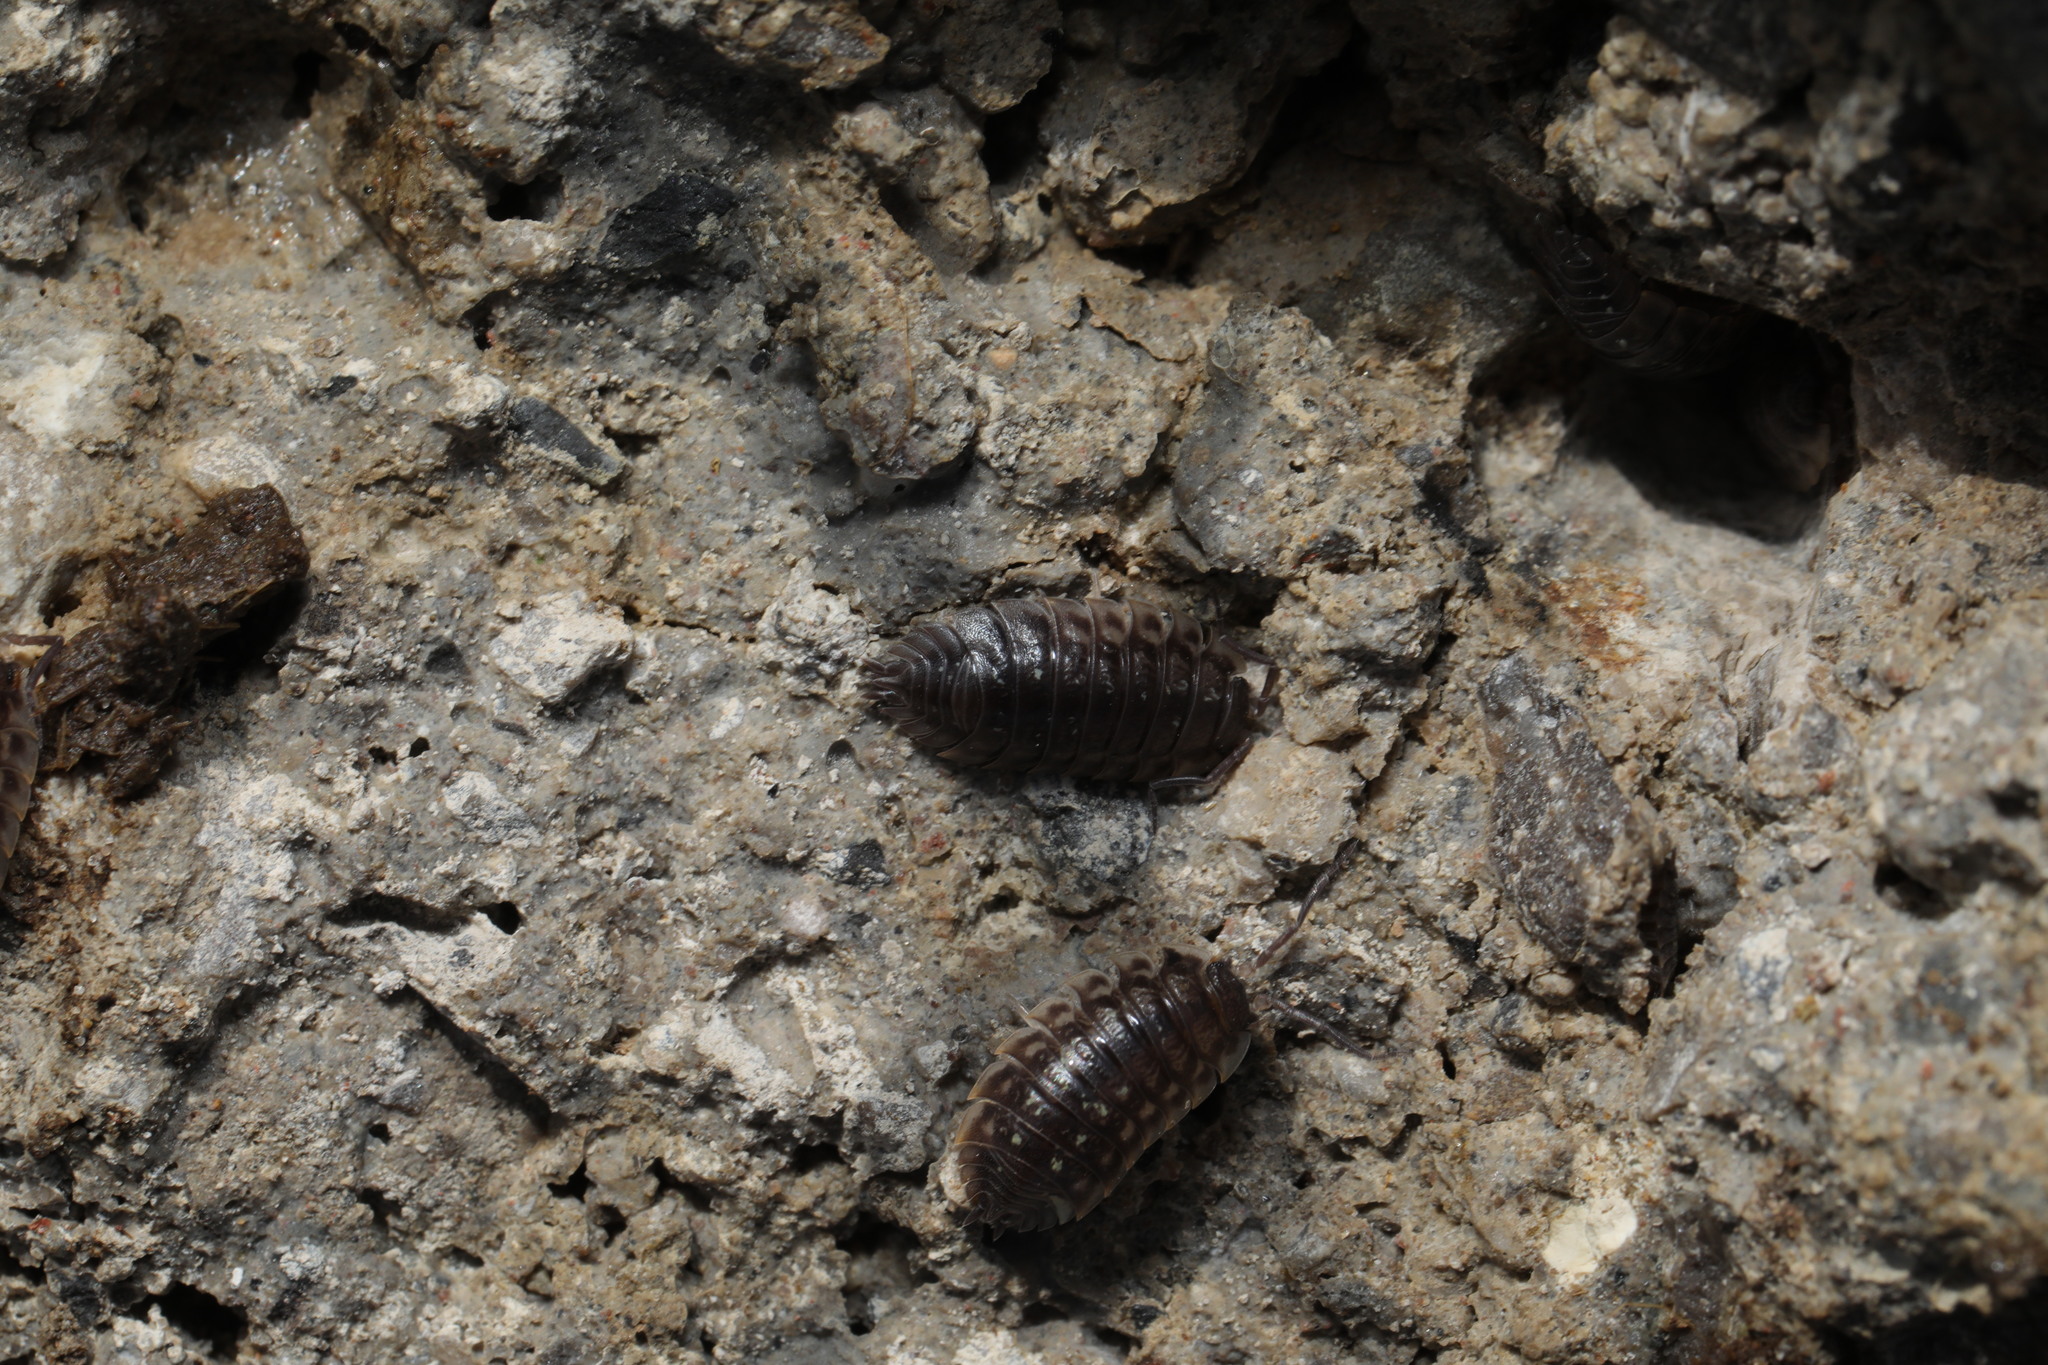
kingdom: Animalia
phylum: Arthropoda
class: Malacostraca
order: Isopoda
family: Oniscidae
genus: Oniscus
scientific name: Oniscus asellus
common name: Common shiny woodlouse
